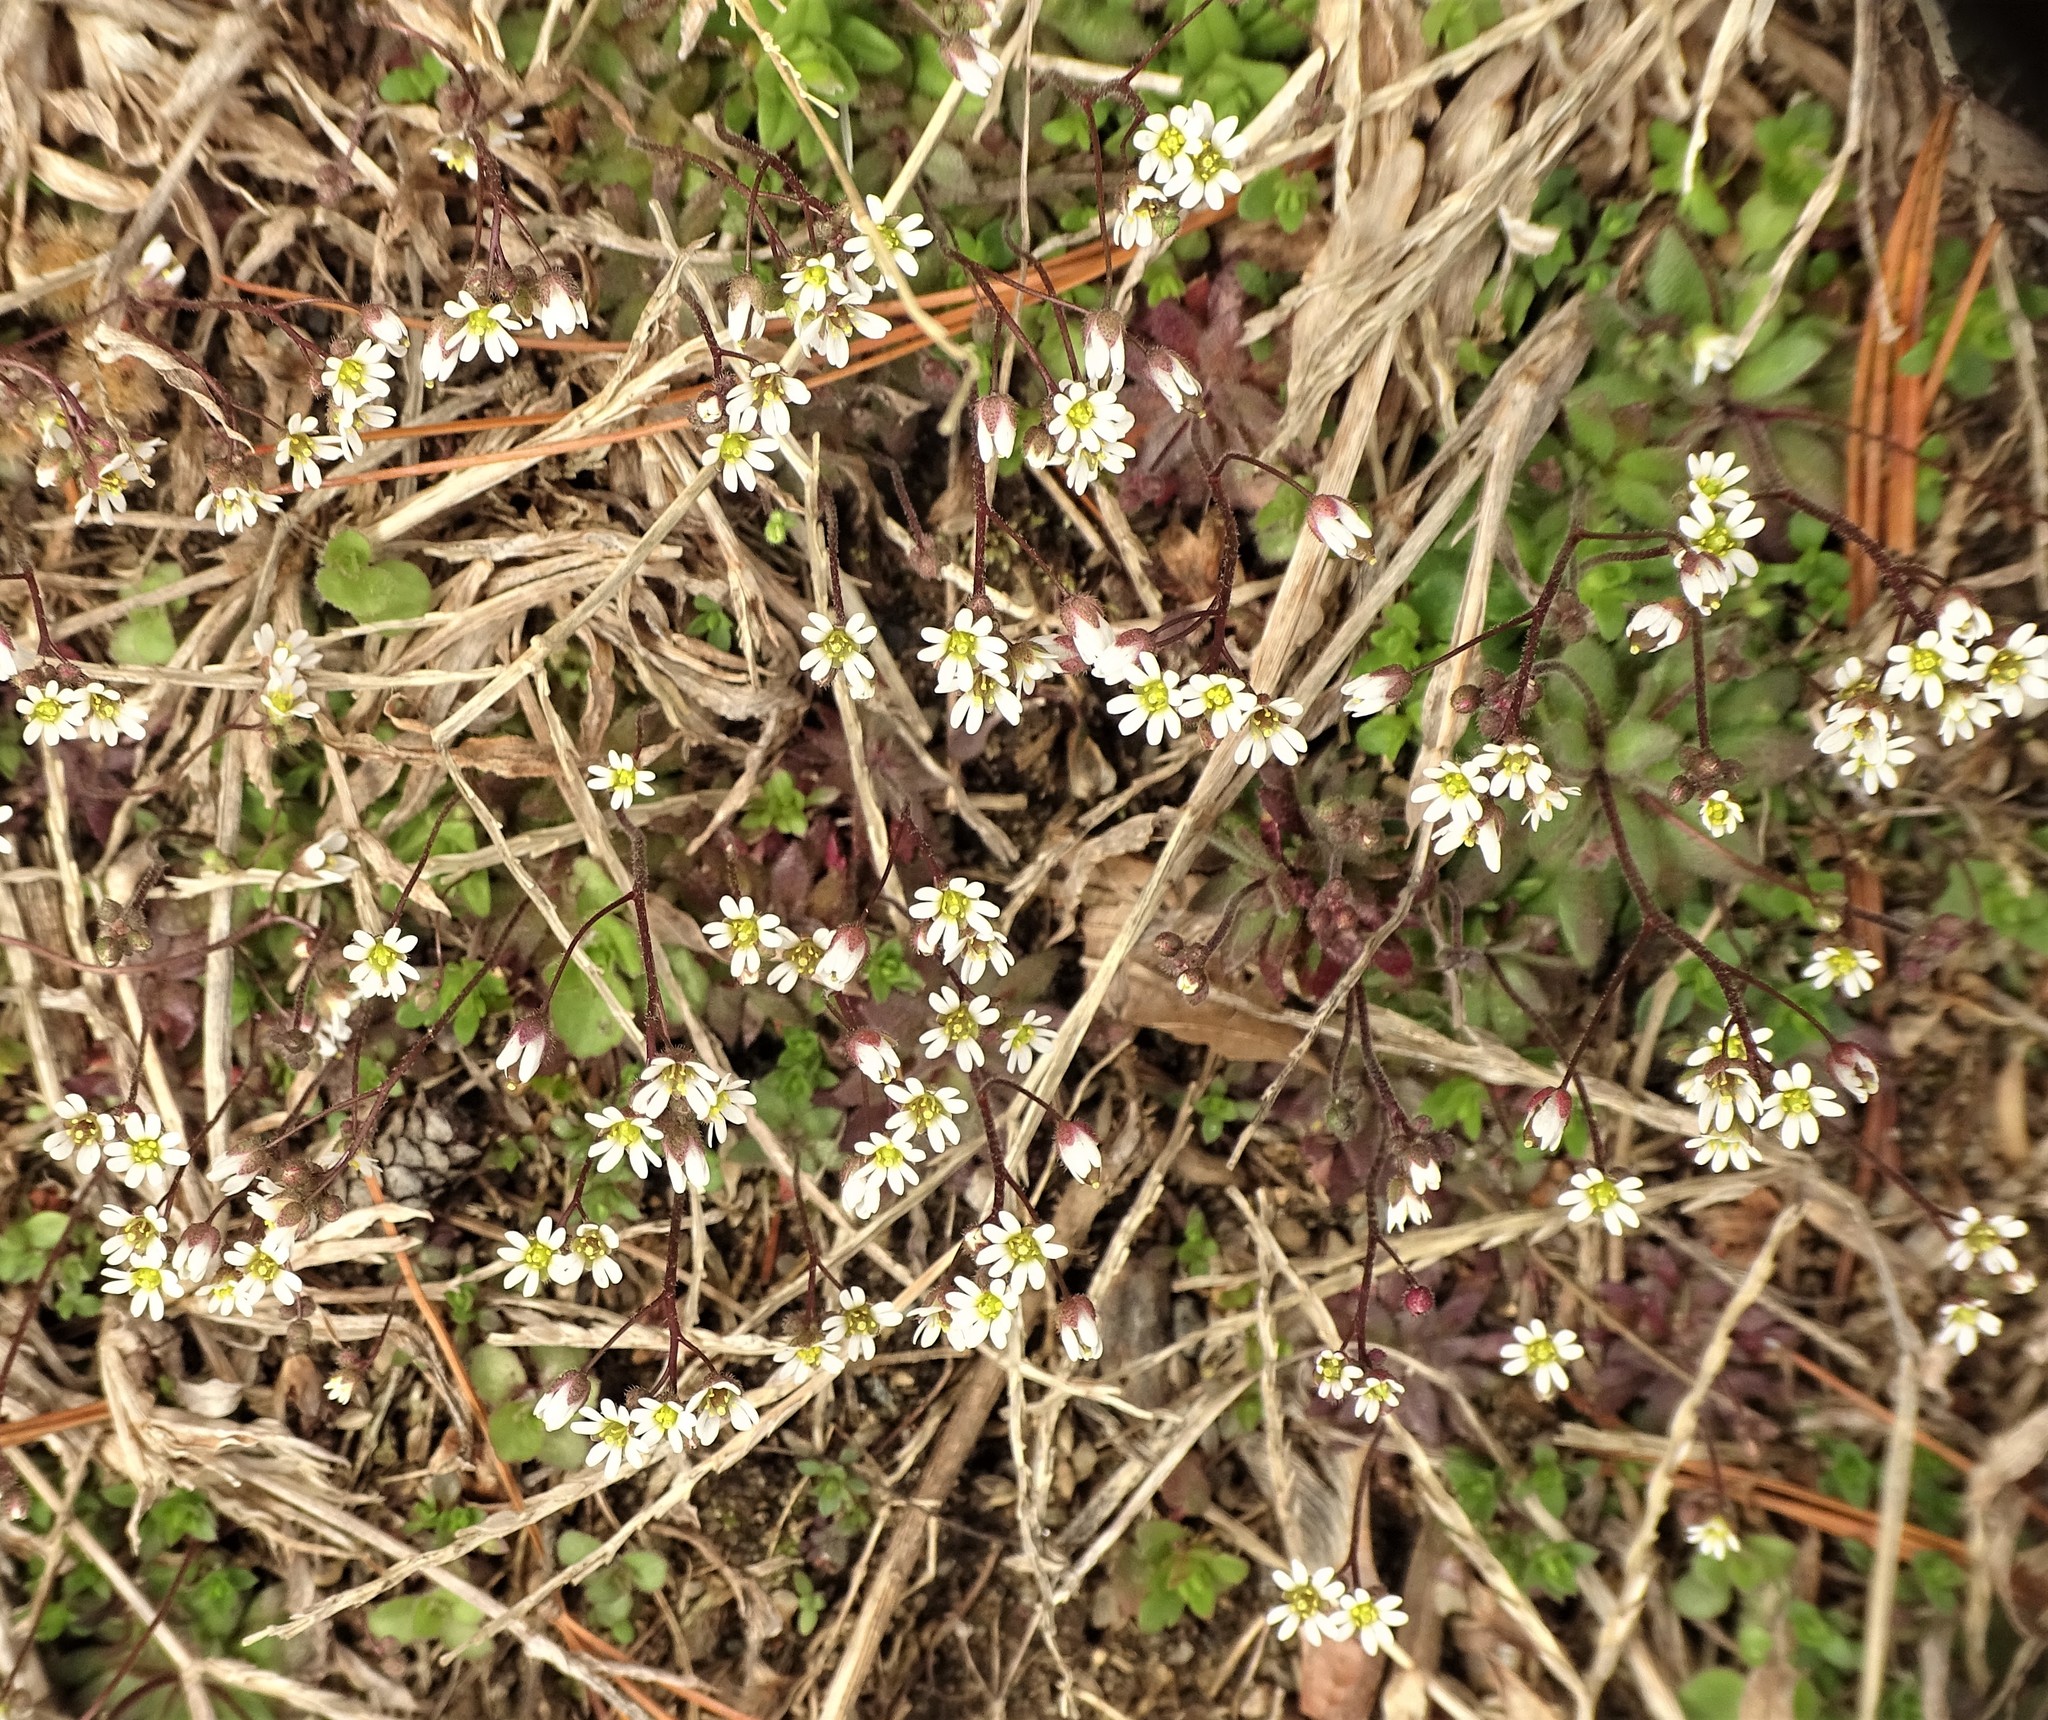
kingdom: Plantae
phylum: Tracheophyta
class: Magnoliopsida
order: Brassicales
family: Brassicaceae
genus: Draba
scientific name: Draba verna
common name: Spring draba
